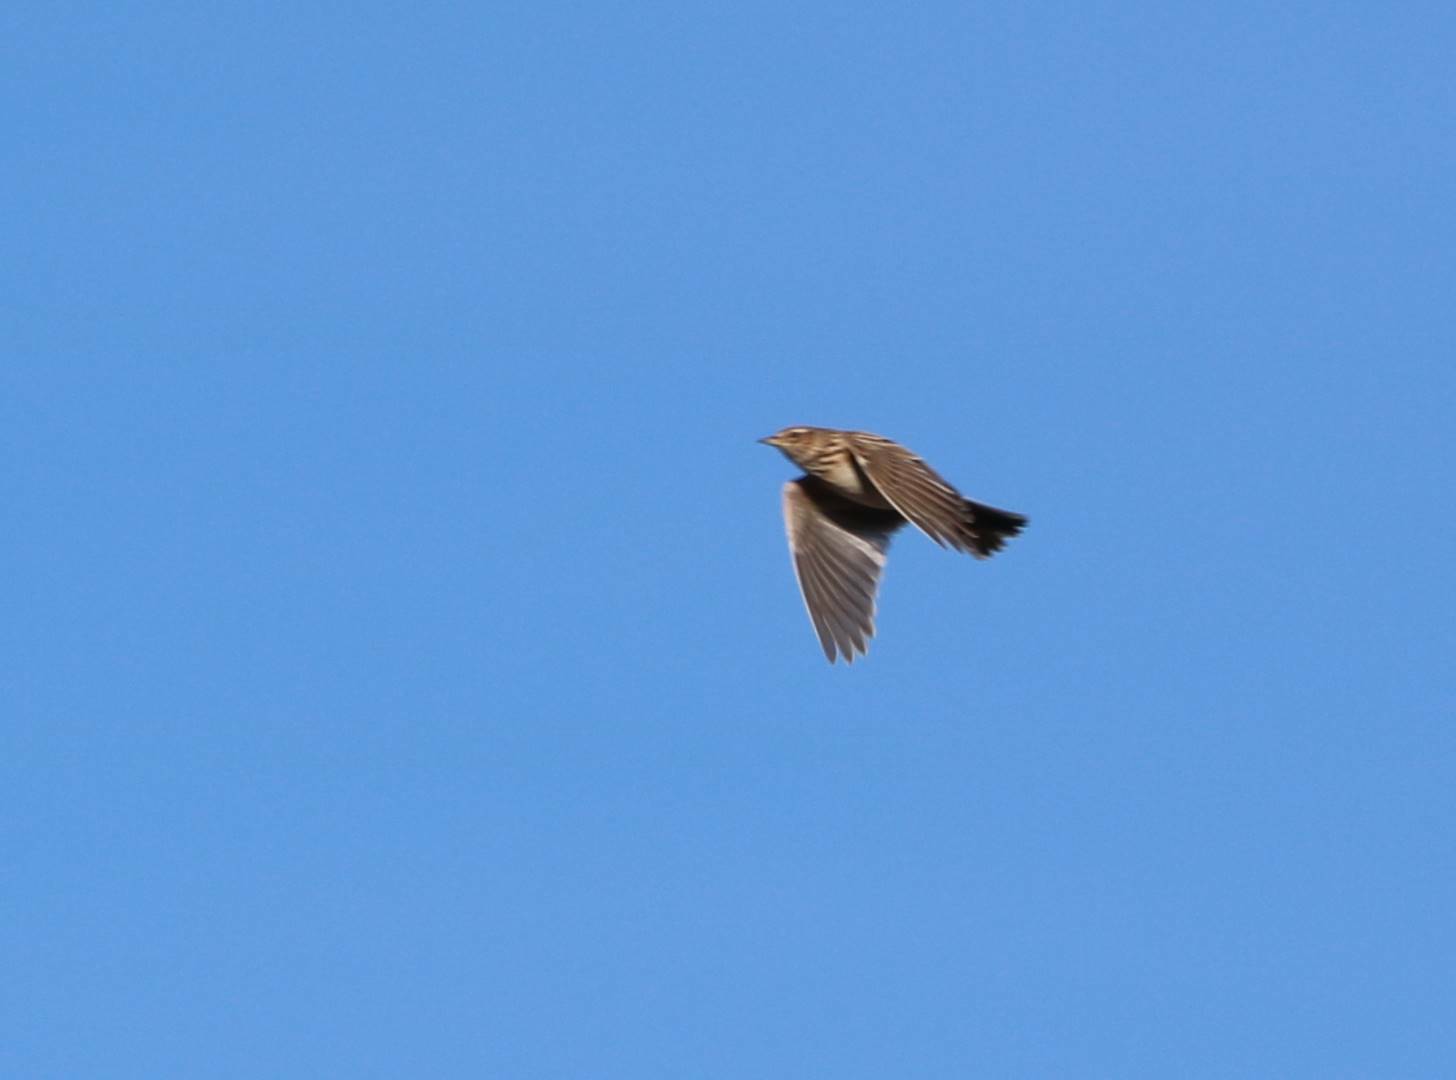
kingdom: Animalia
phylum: Chordata
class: Aves
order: Passeriformes
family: Alaudidae
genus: Alauda
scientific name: Alauda arvensis
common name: Eurasian skylark
